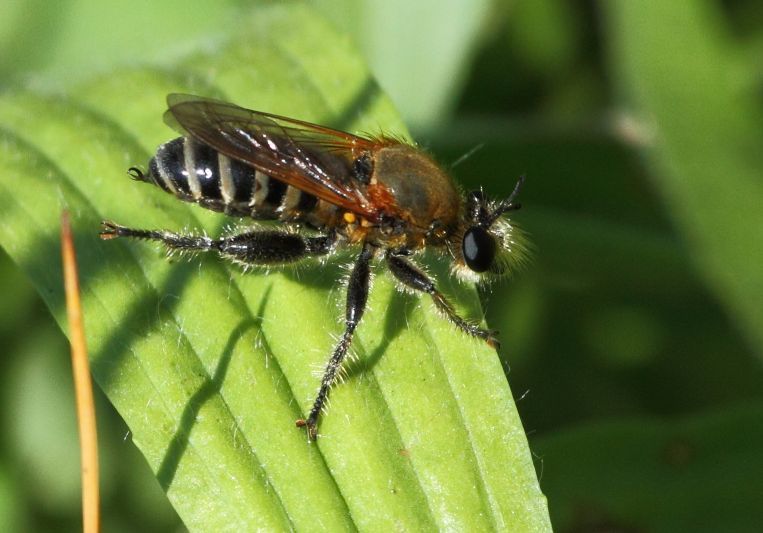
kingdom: Animalia
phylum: Arthropoda
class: Insecta
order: Diptera
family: Asilidae
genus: Laxenecera
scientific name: Laxenecera albicincta
